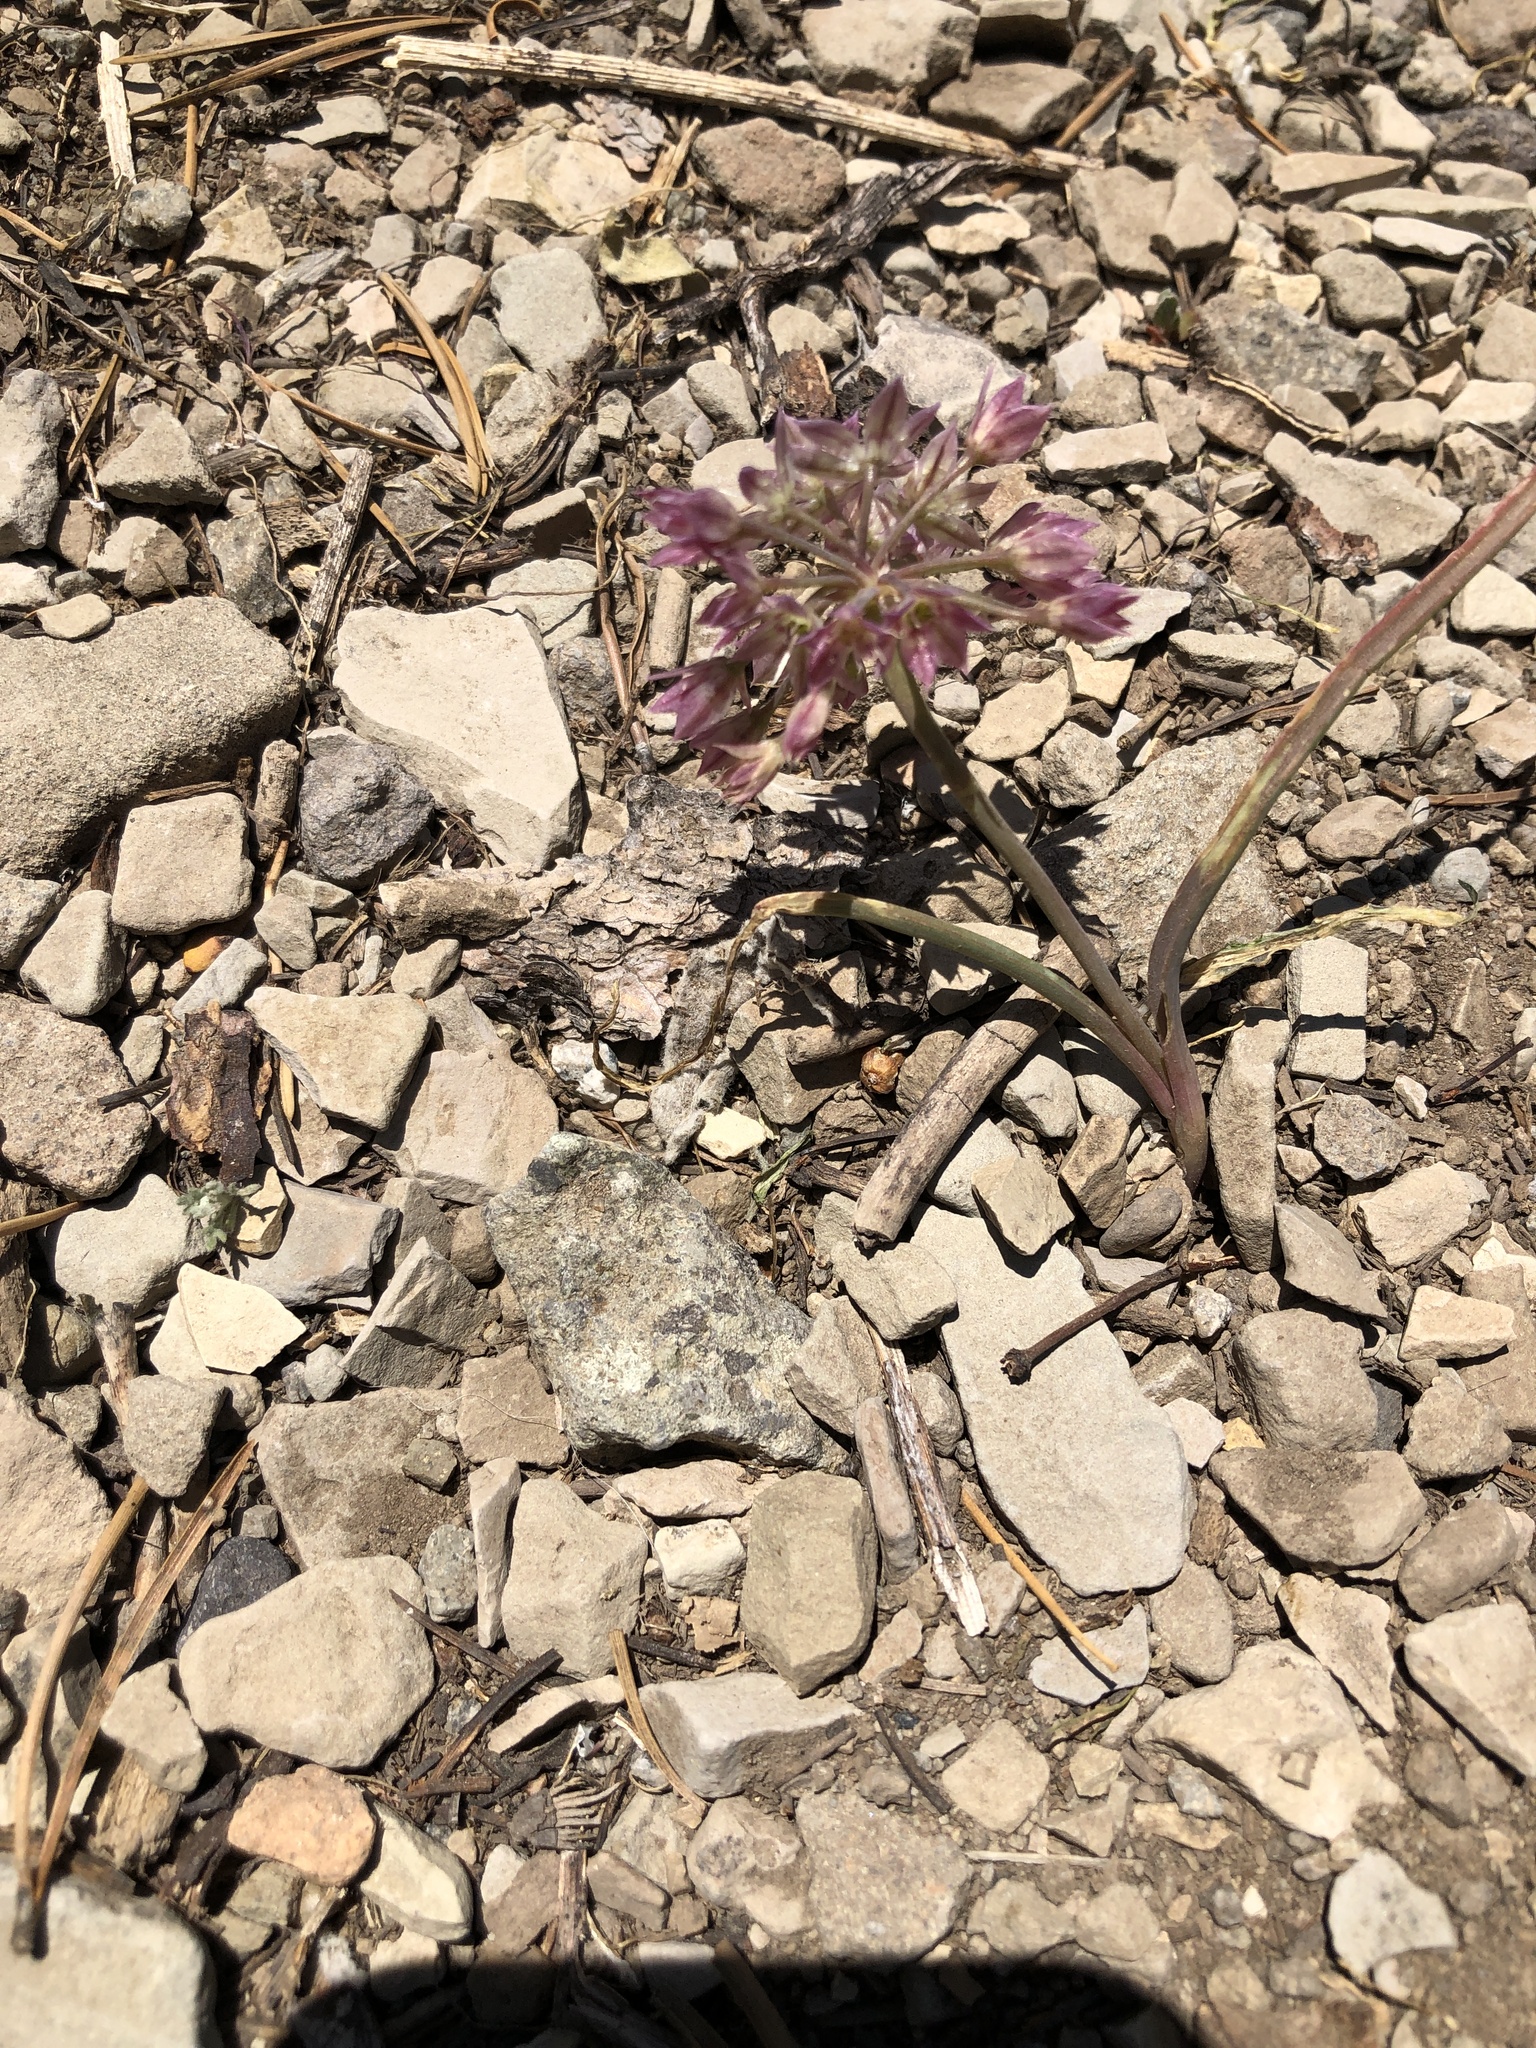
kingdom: Plantae
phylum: Tracheophyta
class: Liliopsida
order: Asparagales
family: Amaryllidaceae
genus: Allium
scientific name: Allium campanulatum
